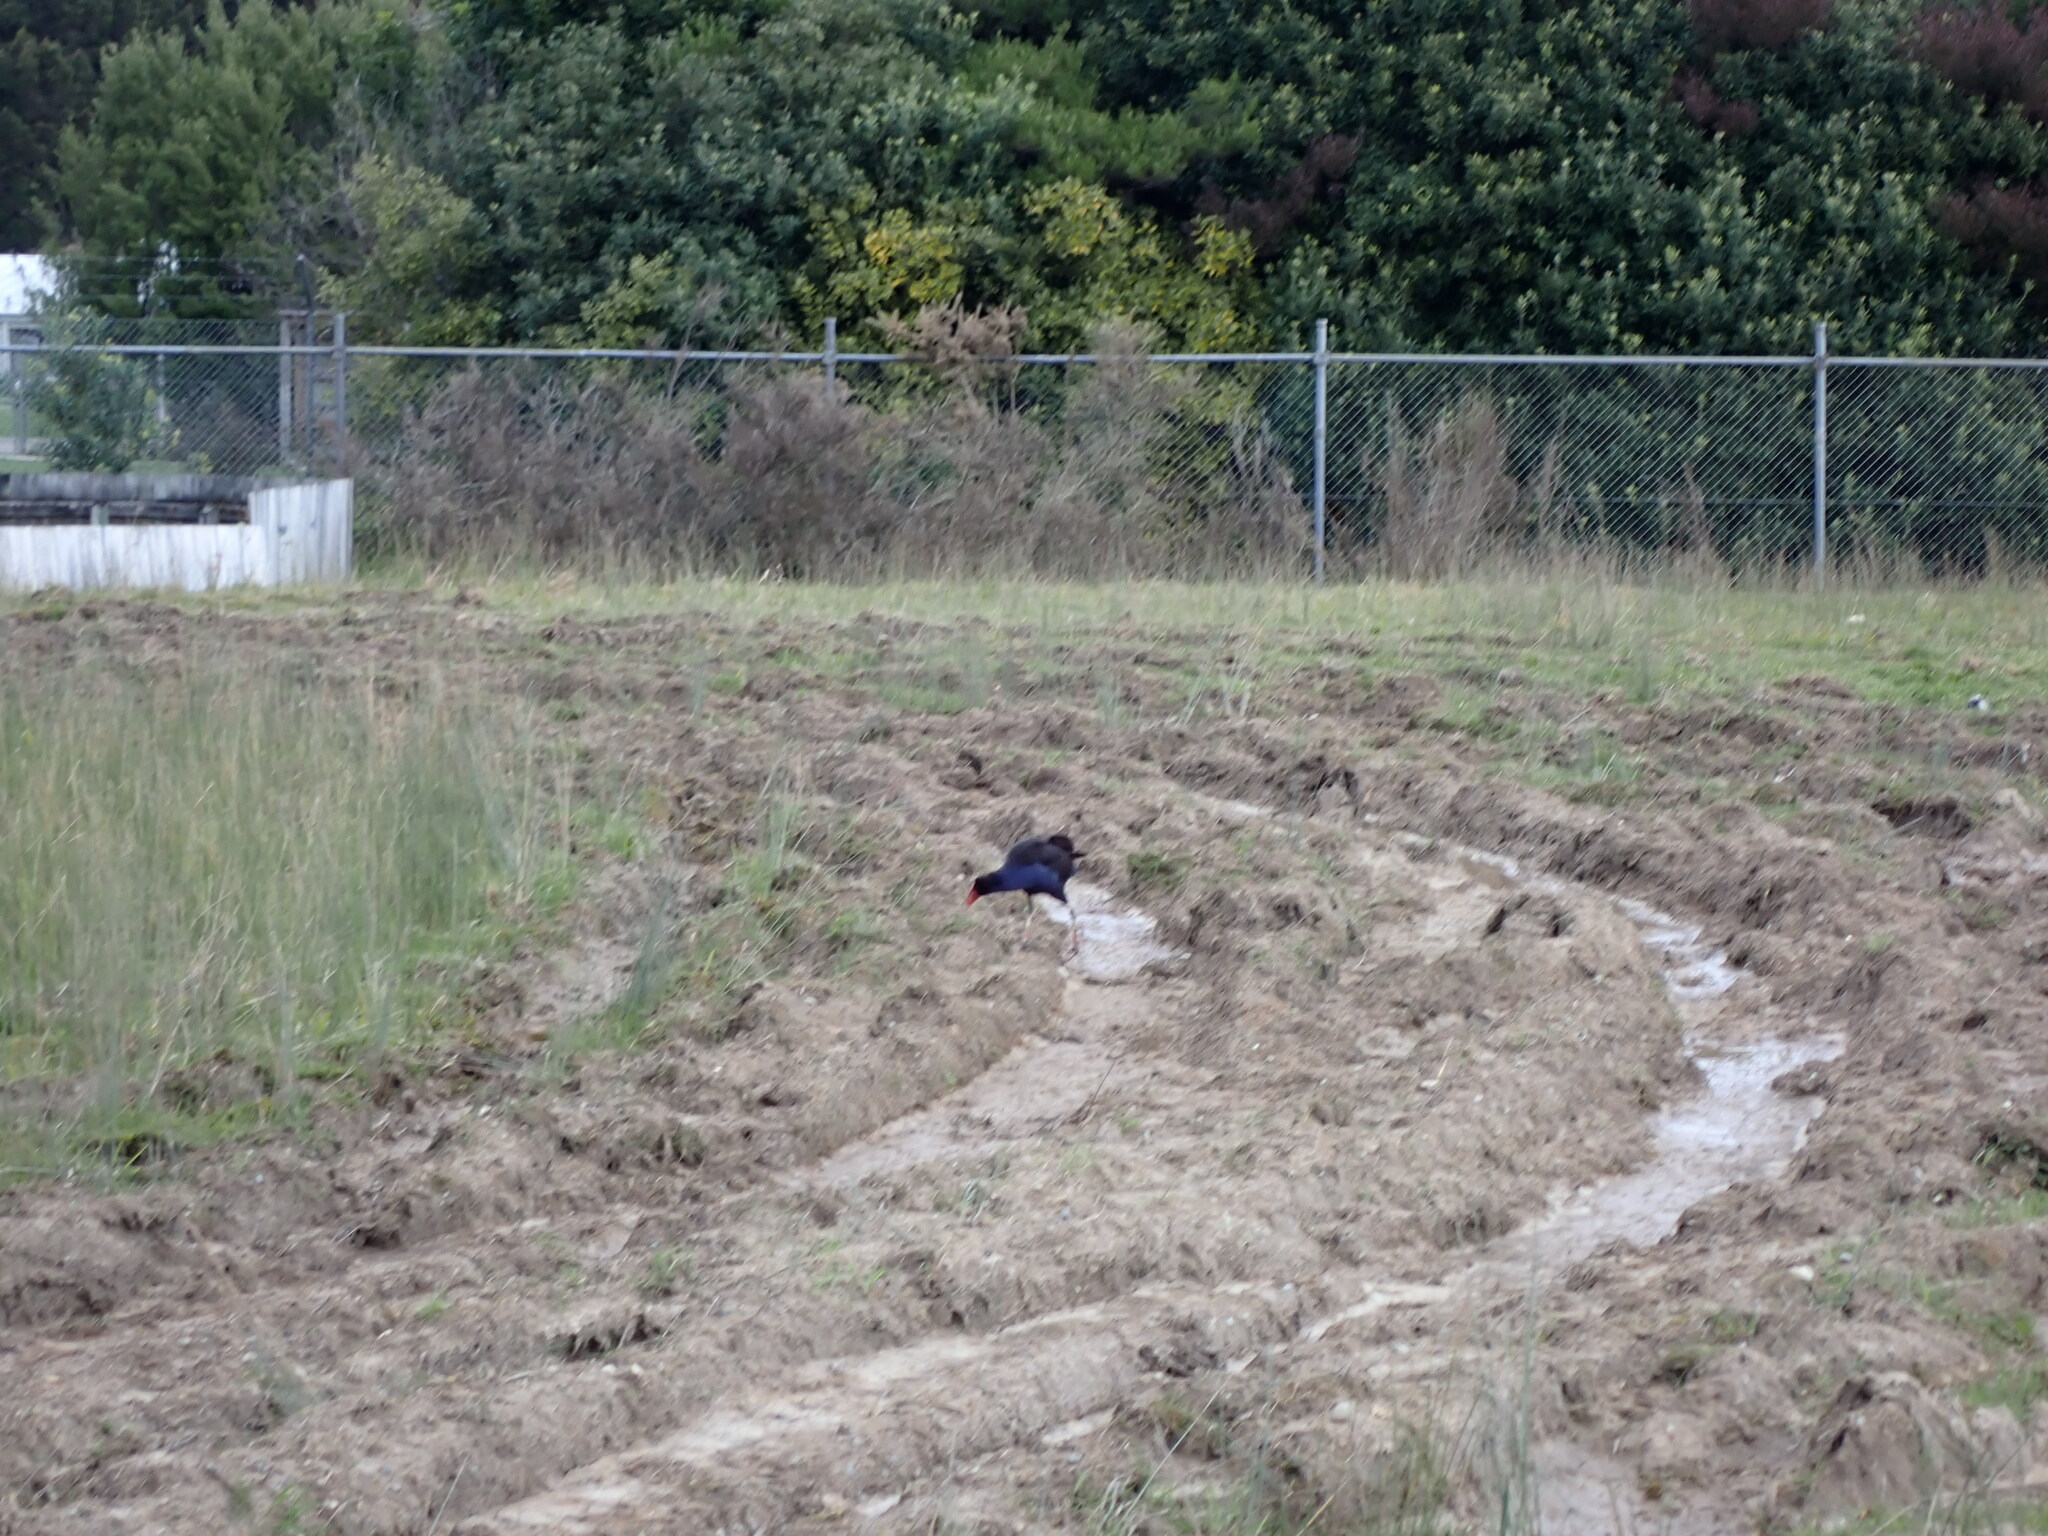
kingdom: Animalia
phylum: Chordata
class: Aves
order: Gruiformes
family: Rallidae
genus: Porphyrio
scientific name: Porphyrio melanotus
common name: Australasian swamphen
